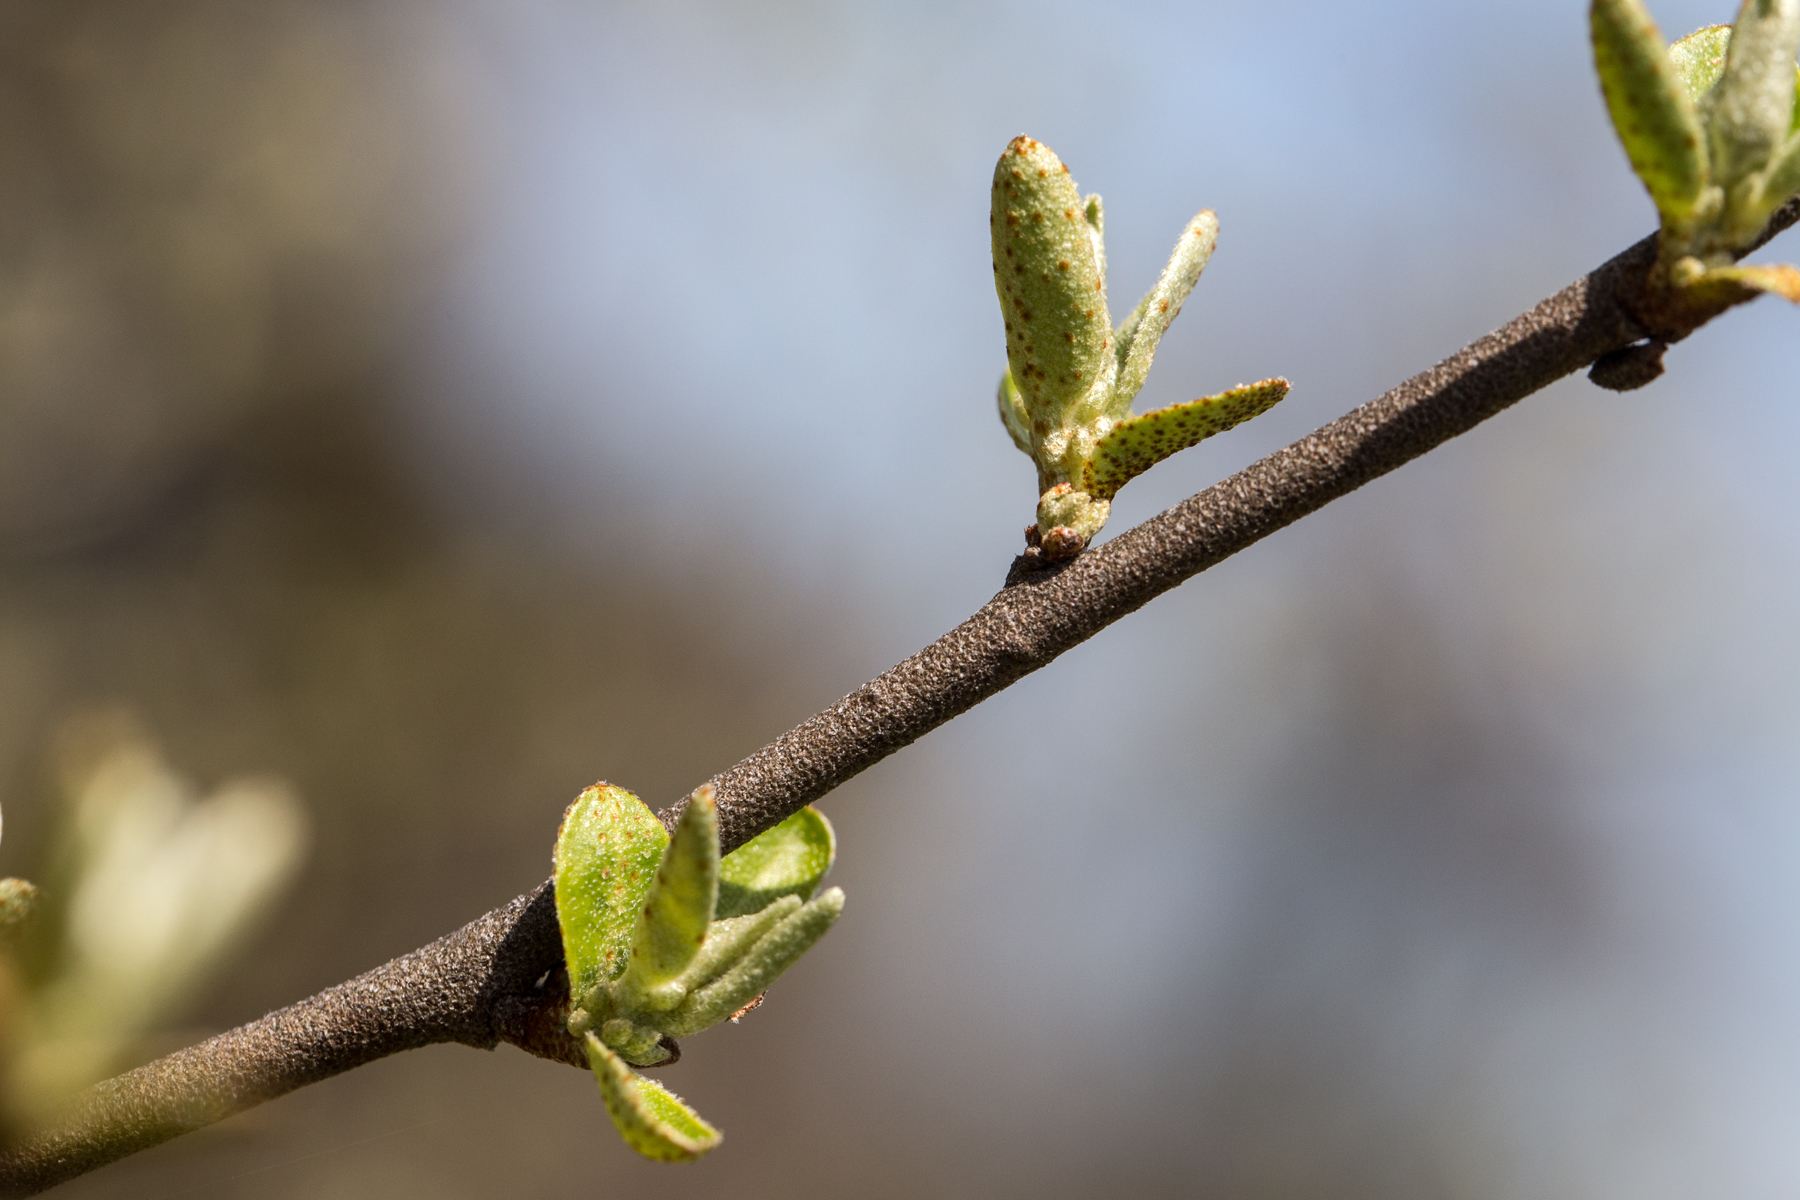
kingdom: Plantae
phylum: Tracheophyta
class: Magnoliopsida
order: Rosales
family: Elaeagnaceae
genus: Elaeagnus
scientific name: Elaeagnus umbellata
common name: Autumn olive
